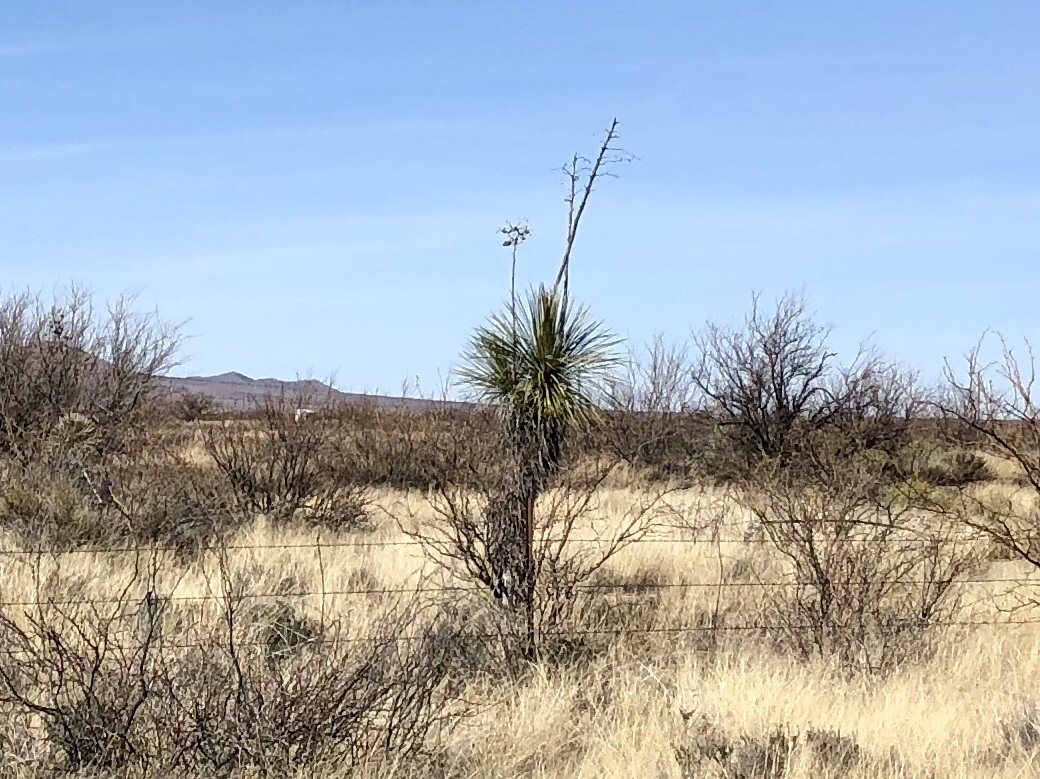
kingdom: Plantae
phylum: Tracheophyta
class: Liliopsida
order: Asparagales
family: Asparagaceae
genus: Yucca
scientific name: Yucca elata
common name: Palmella
